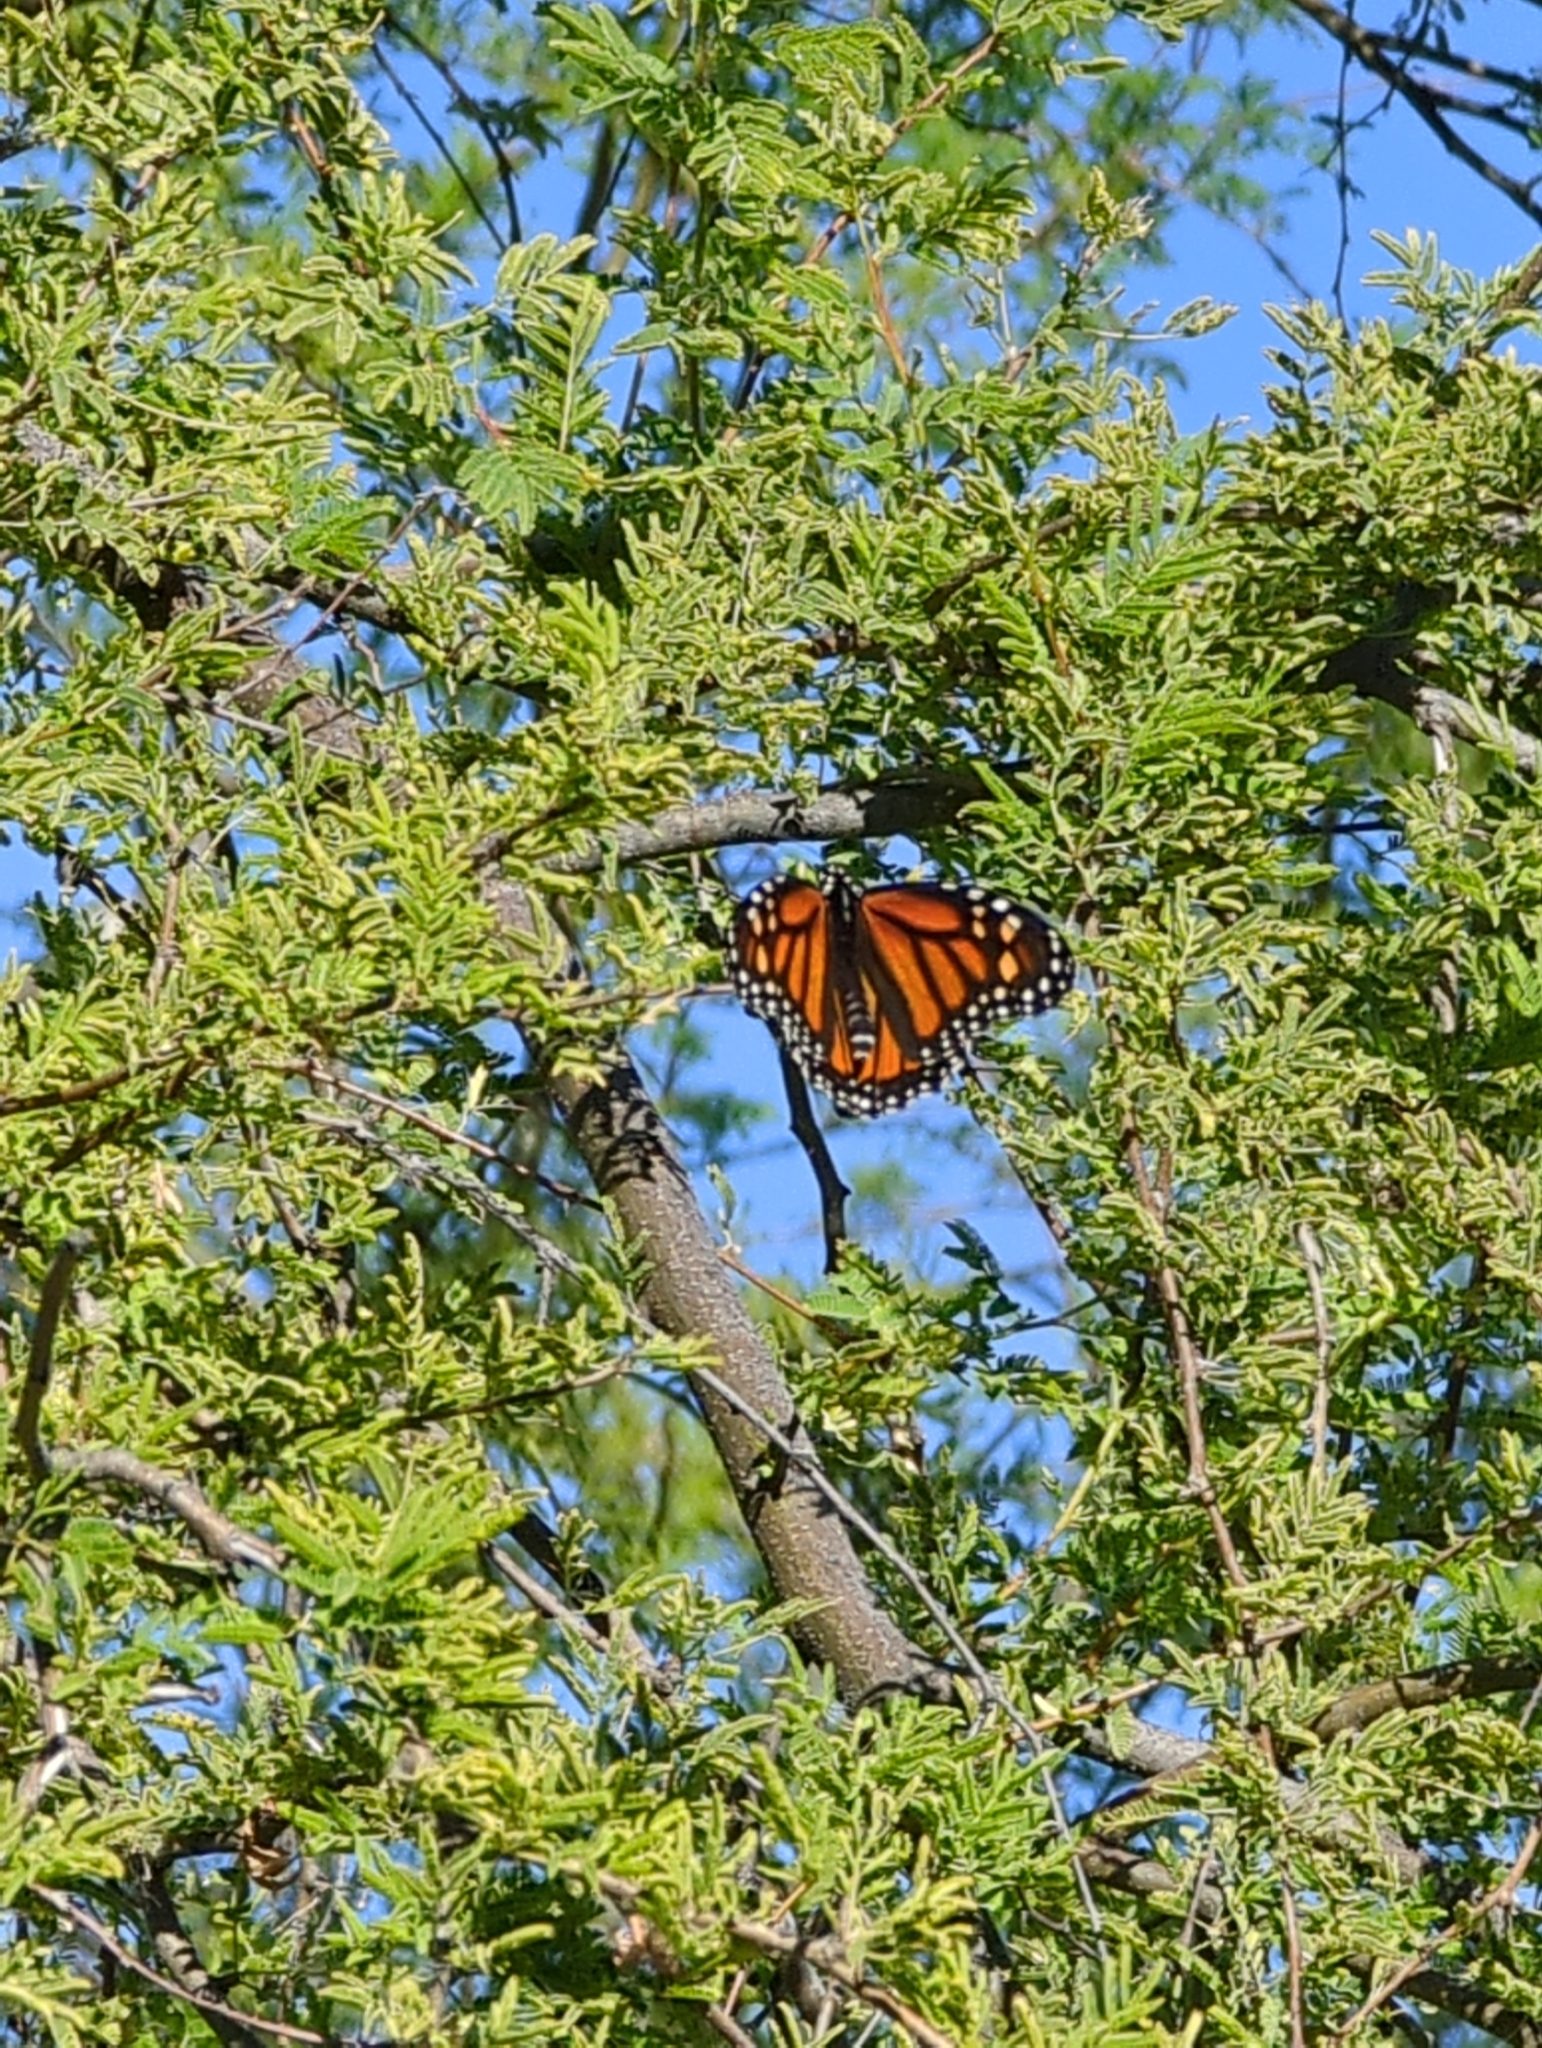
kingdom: Animalia
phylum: Arthropoda
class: Insecta
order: Lepidoptera
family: Nymphalidae
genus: Danaus
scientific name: Danaus plexippus
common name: Monarch
